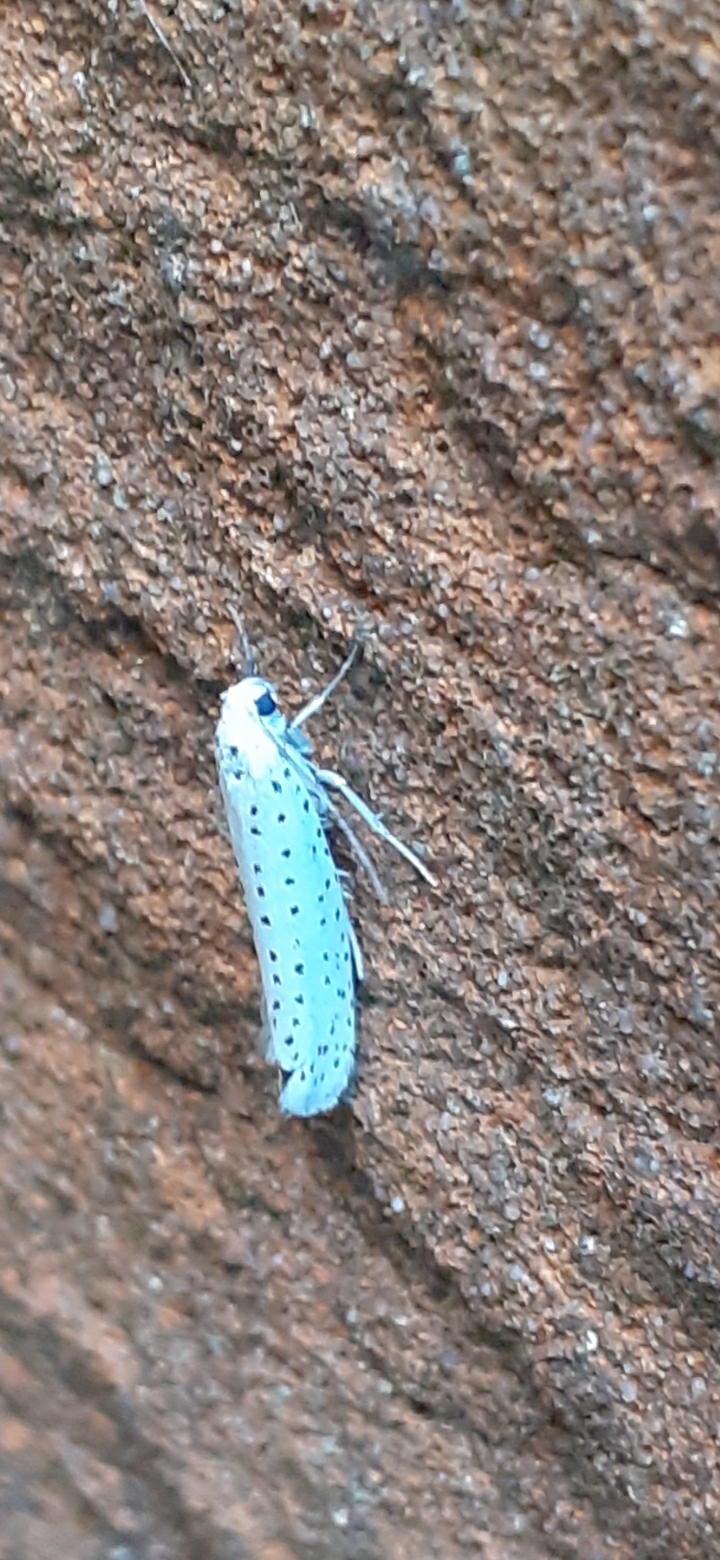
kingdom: Animalia
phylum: Arthropoda
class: Insecta
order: Lepidoptera
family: Yponomeutidae
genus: Yponomeuta
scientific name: Yponomeuta evonymella
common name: Bird-cherry ermine
